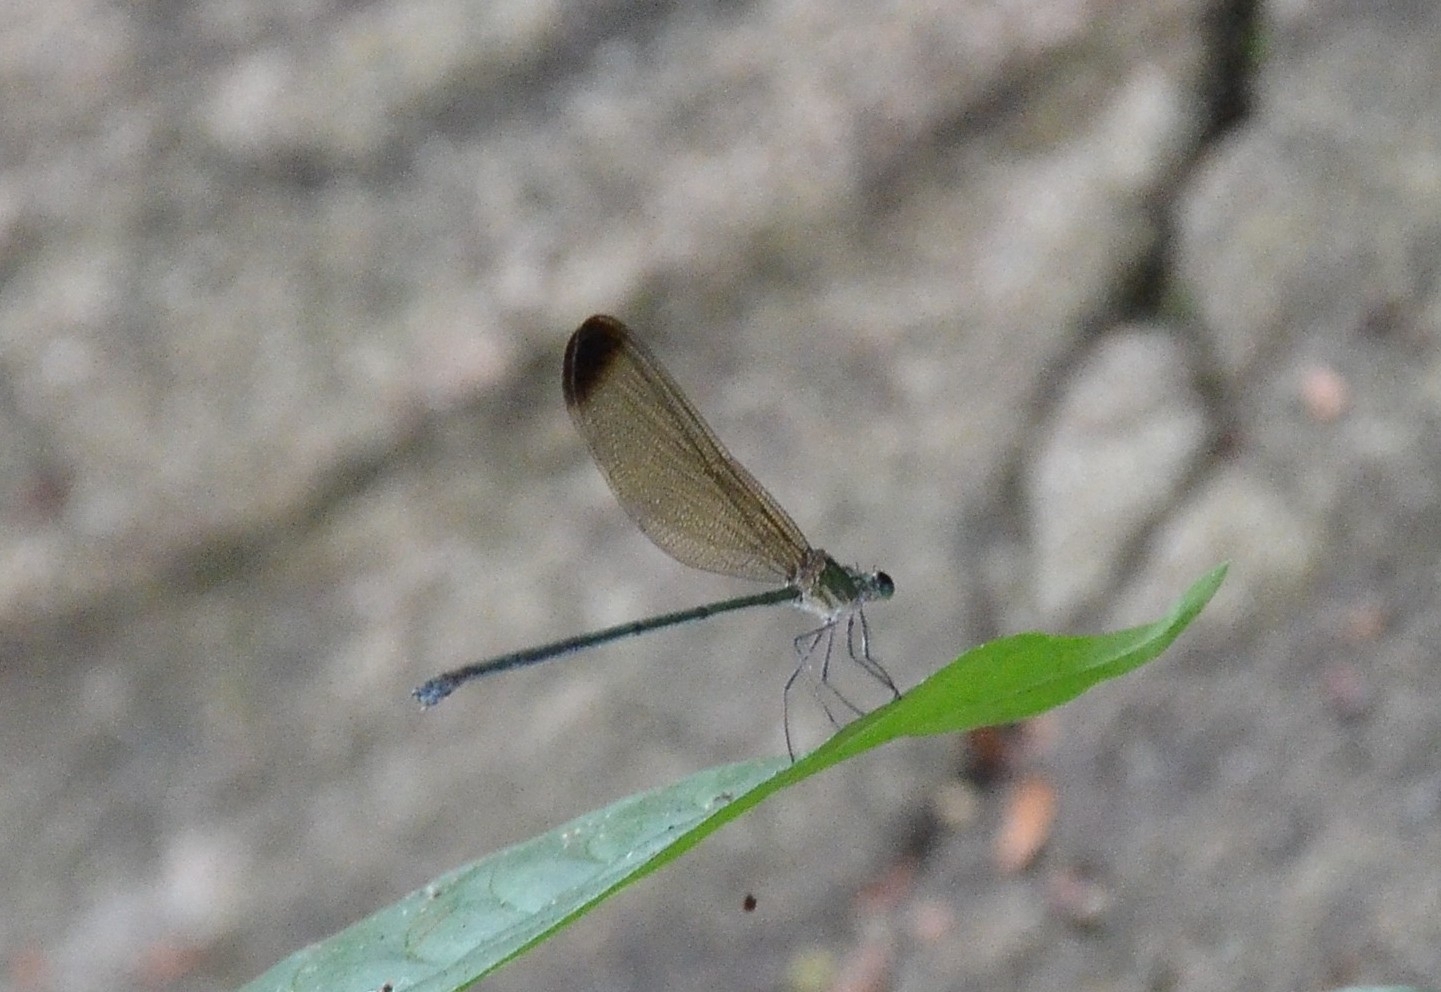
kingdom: Animalia
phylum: Arthropoda
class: Insecta
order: Odonata
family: Calopterygidae
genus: Vestalis
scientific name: Vestalis apicalis
